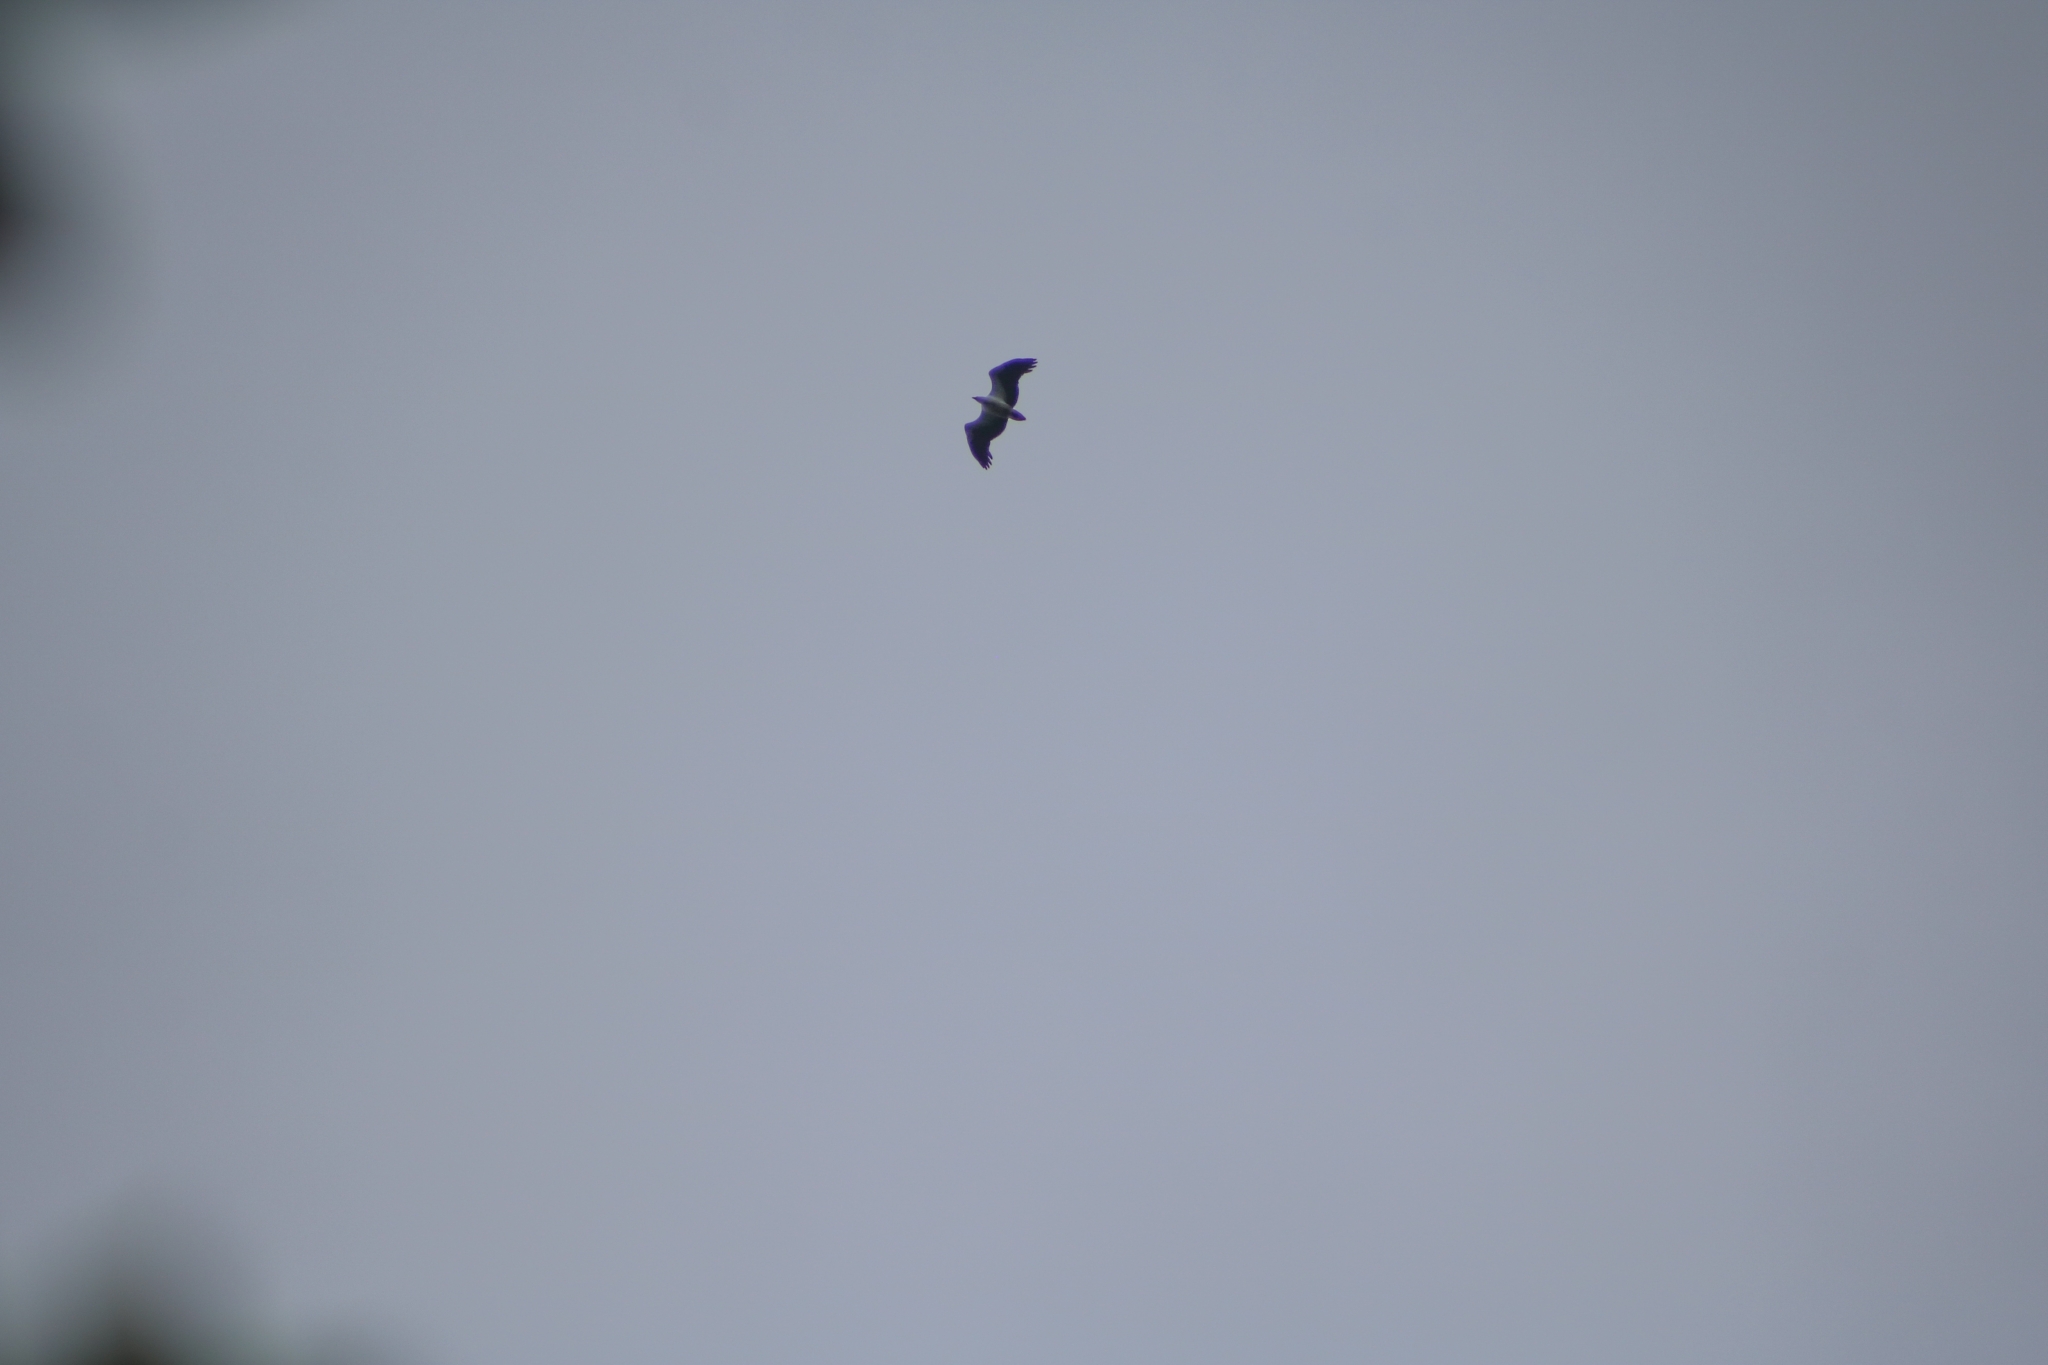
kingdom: Animalia
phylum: Chordata
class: Aves
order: Accipitriformes
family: Accipitridae
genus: Haliaeetus
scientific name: Haliaeetus leucogaster
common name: White-bellied sea eagle
